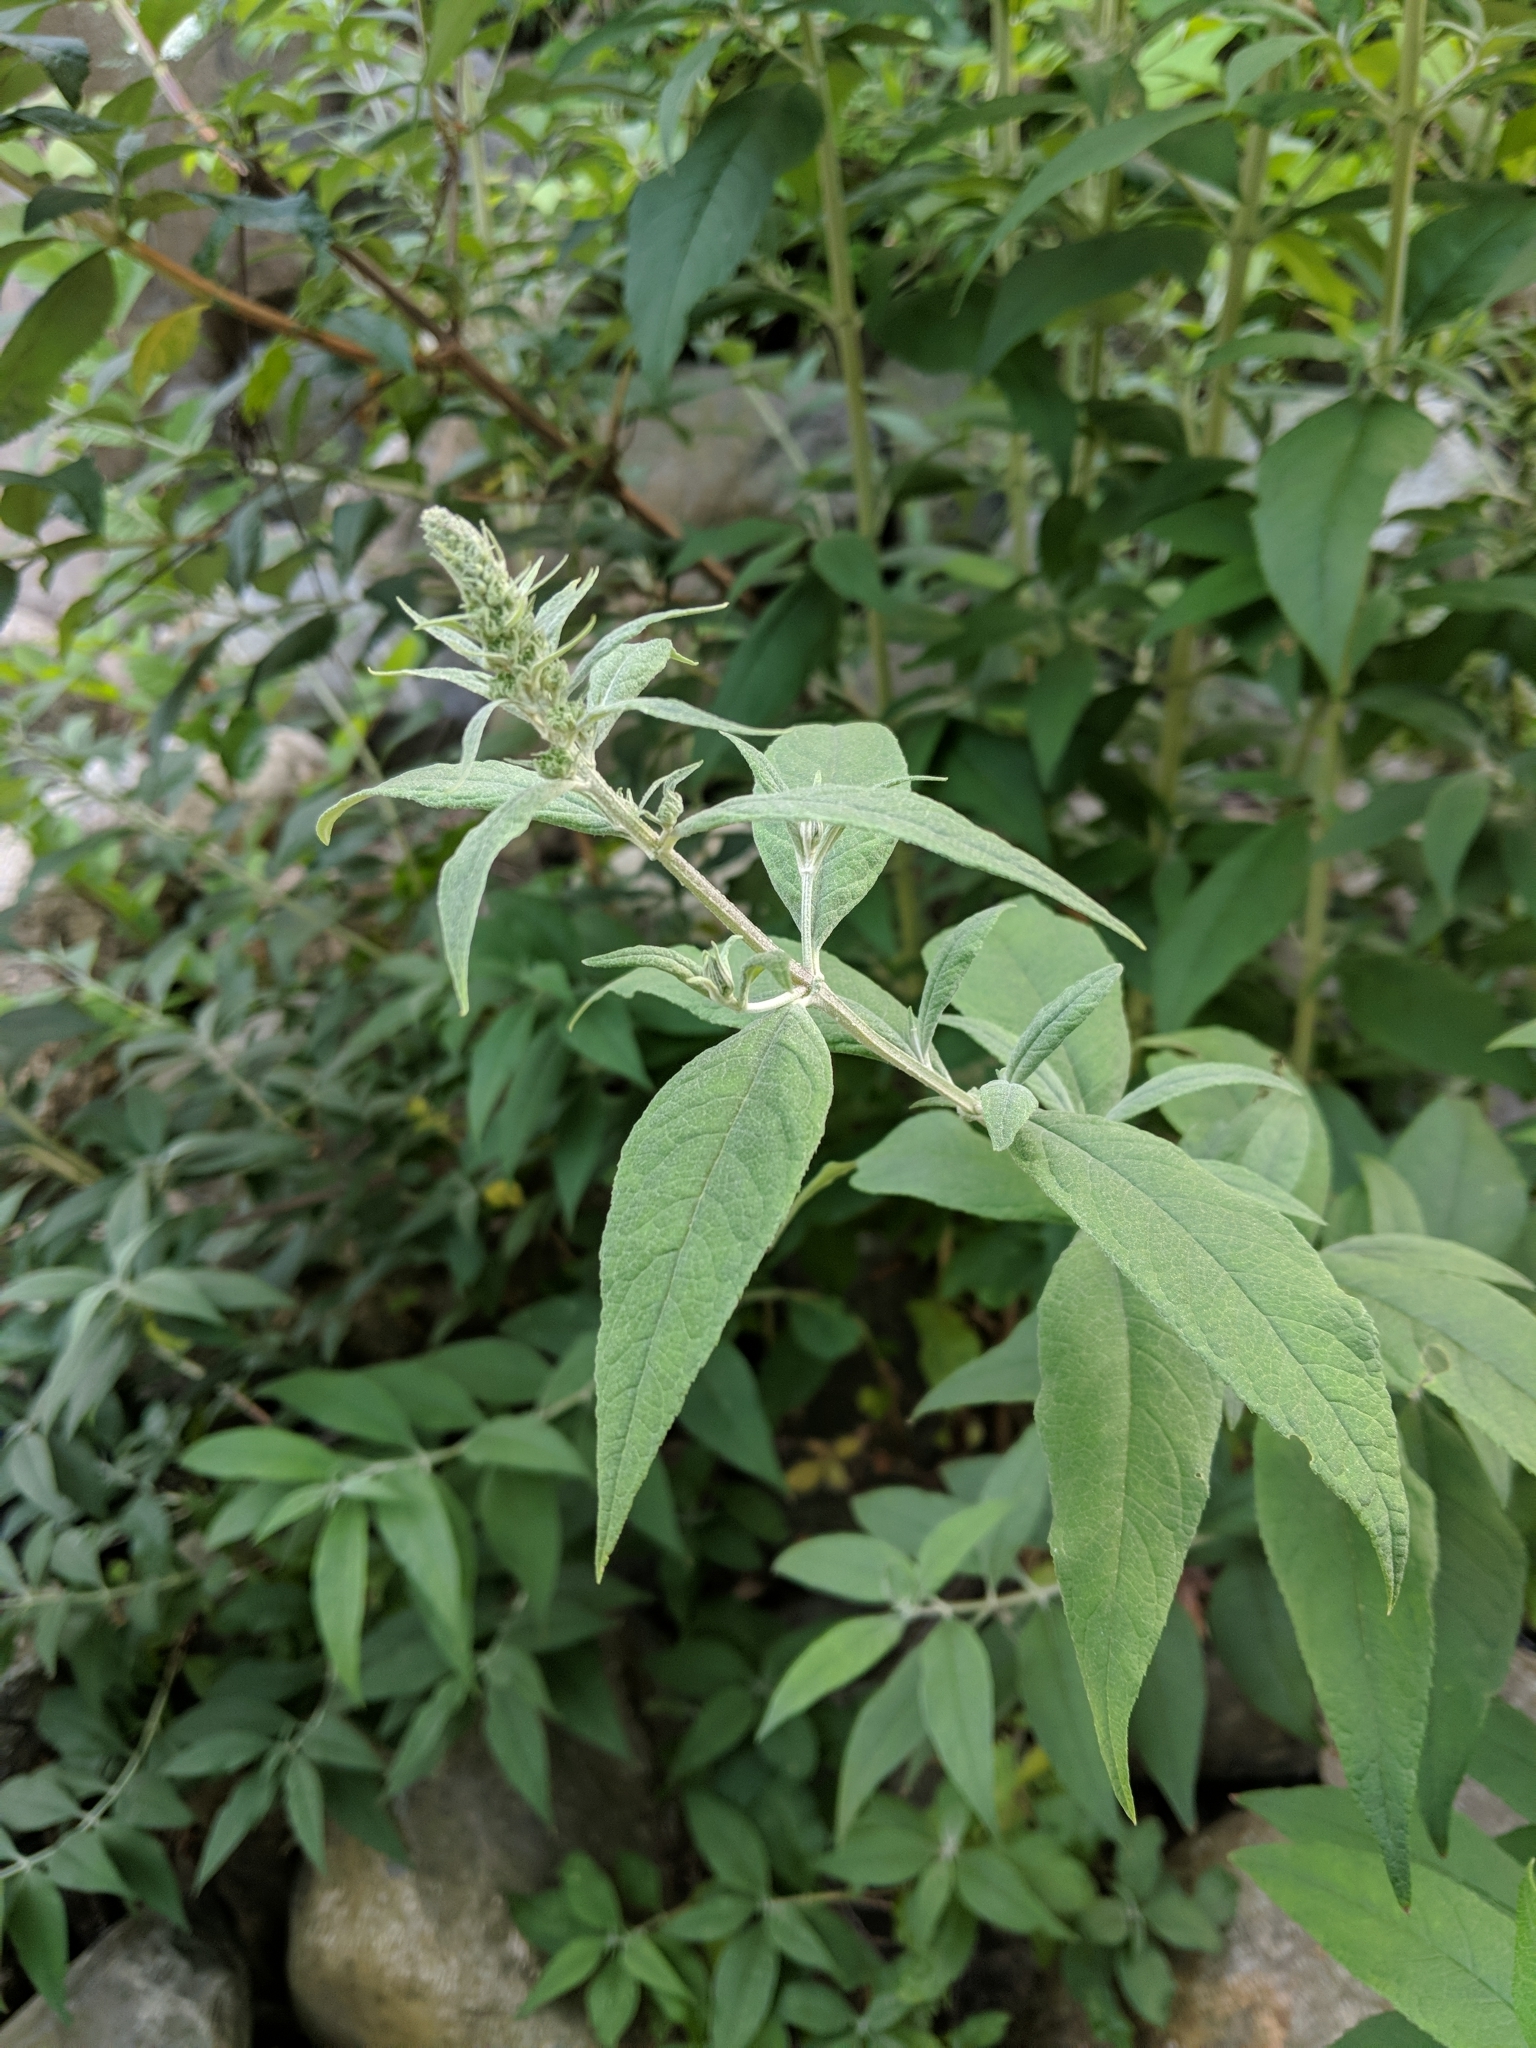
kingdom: Plantae
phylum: Tracheophyta
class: Magnoliopsida
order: Lamiales
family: Scrophulariaceae
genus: Buddleja
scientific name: Buddleja davidii
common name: Butterfly-bush
